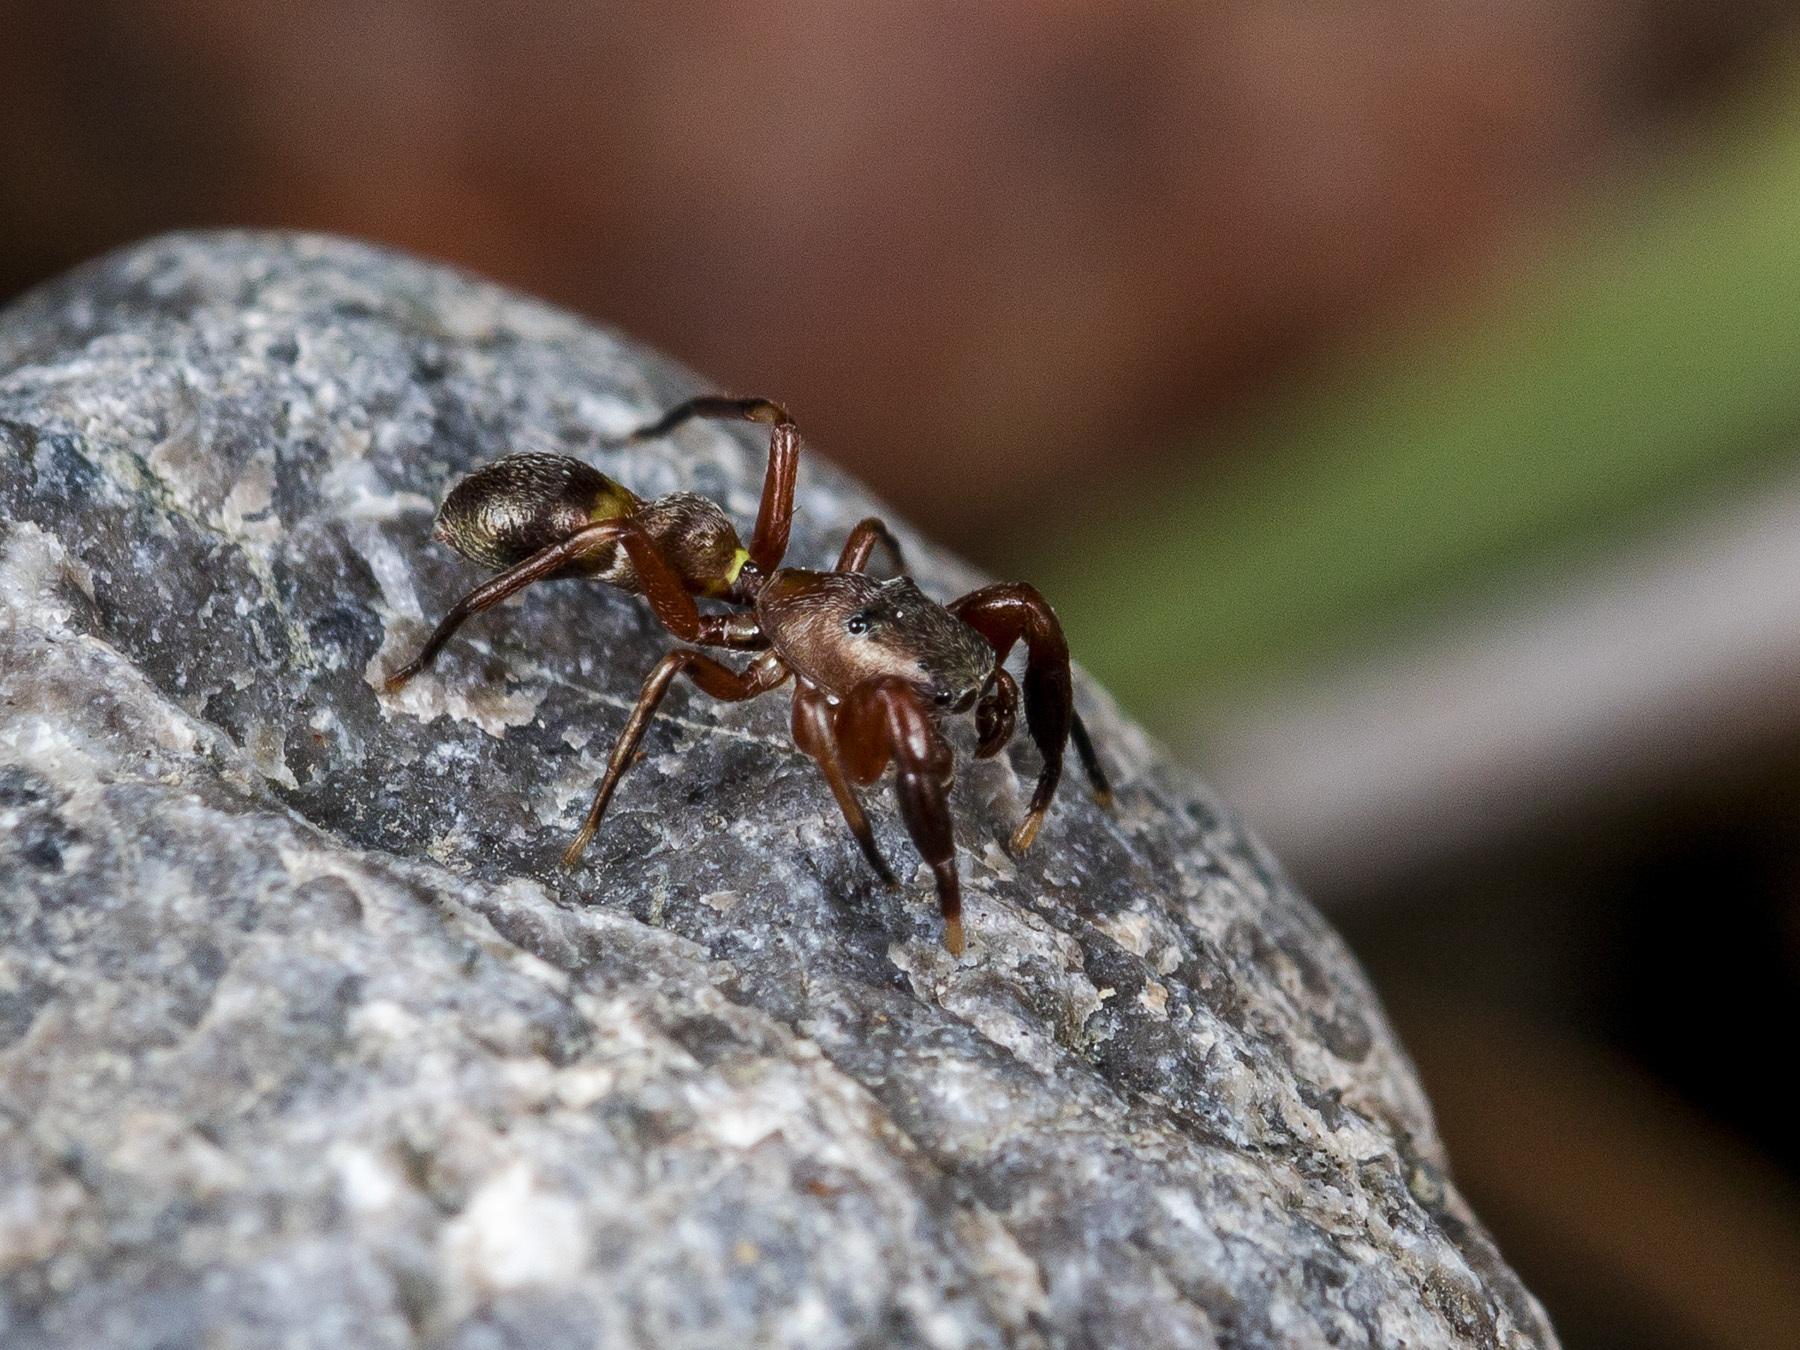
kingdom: Animalia
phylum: Arthropoda
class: Arachnida
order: Araneae
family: Salticidae
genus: Synageles
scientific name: Synageles subcingulatus
